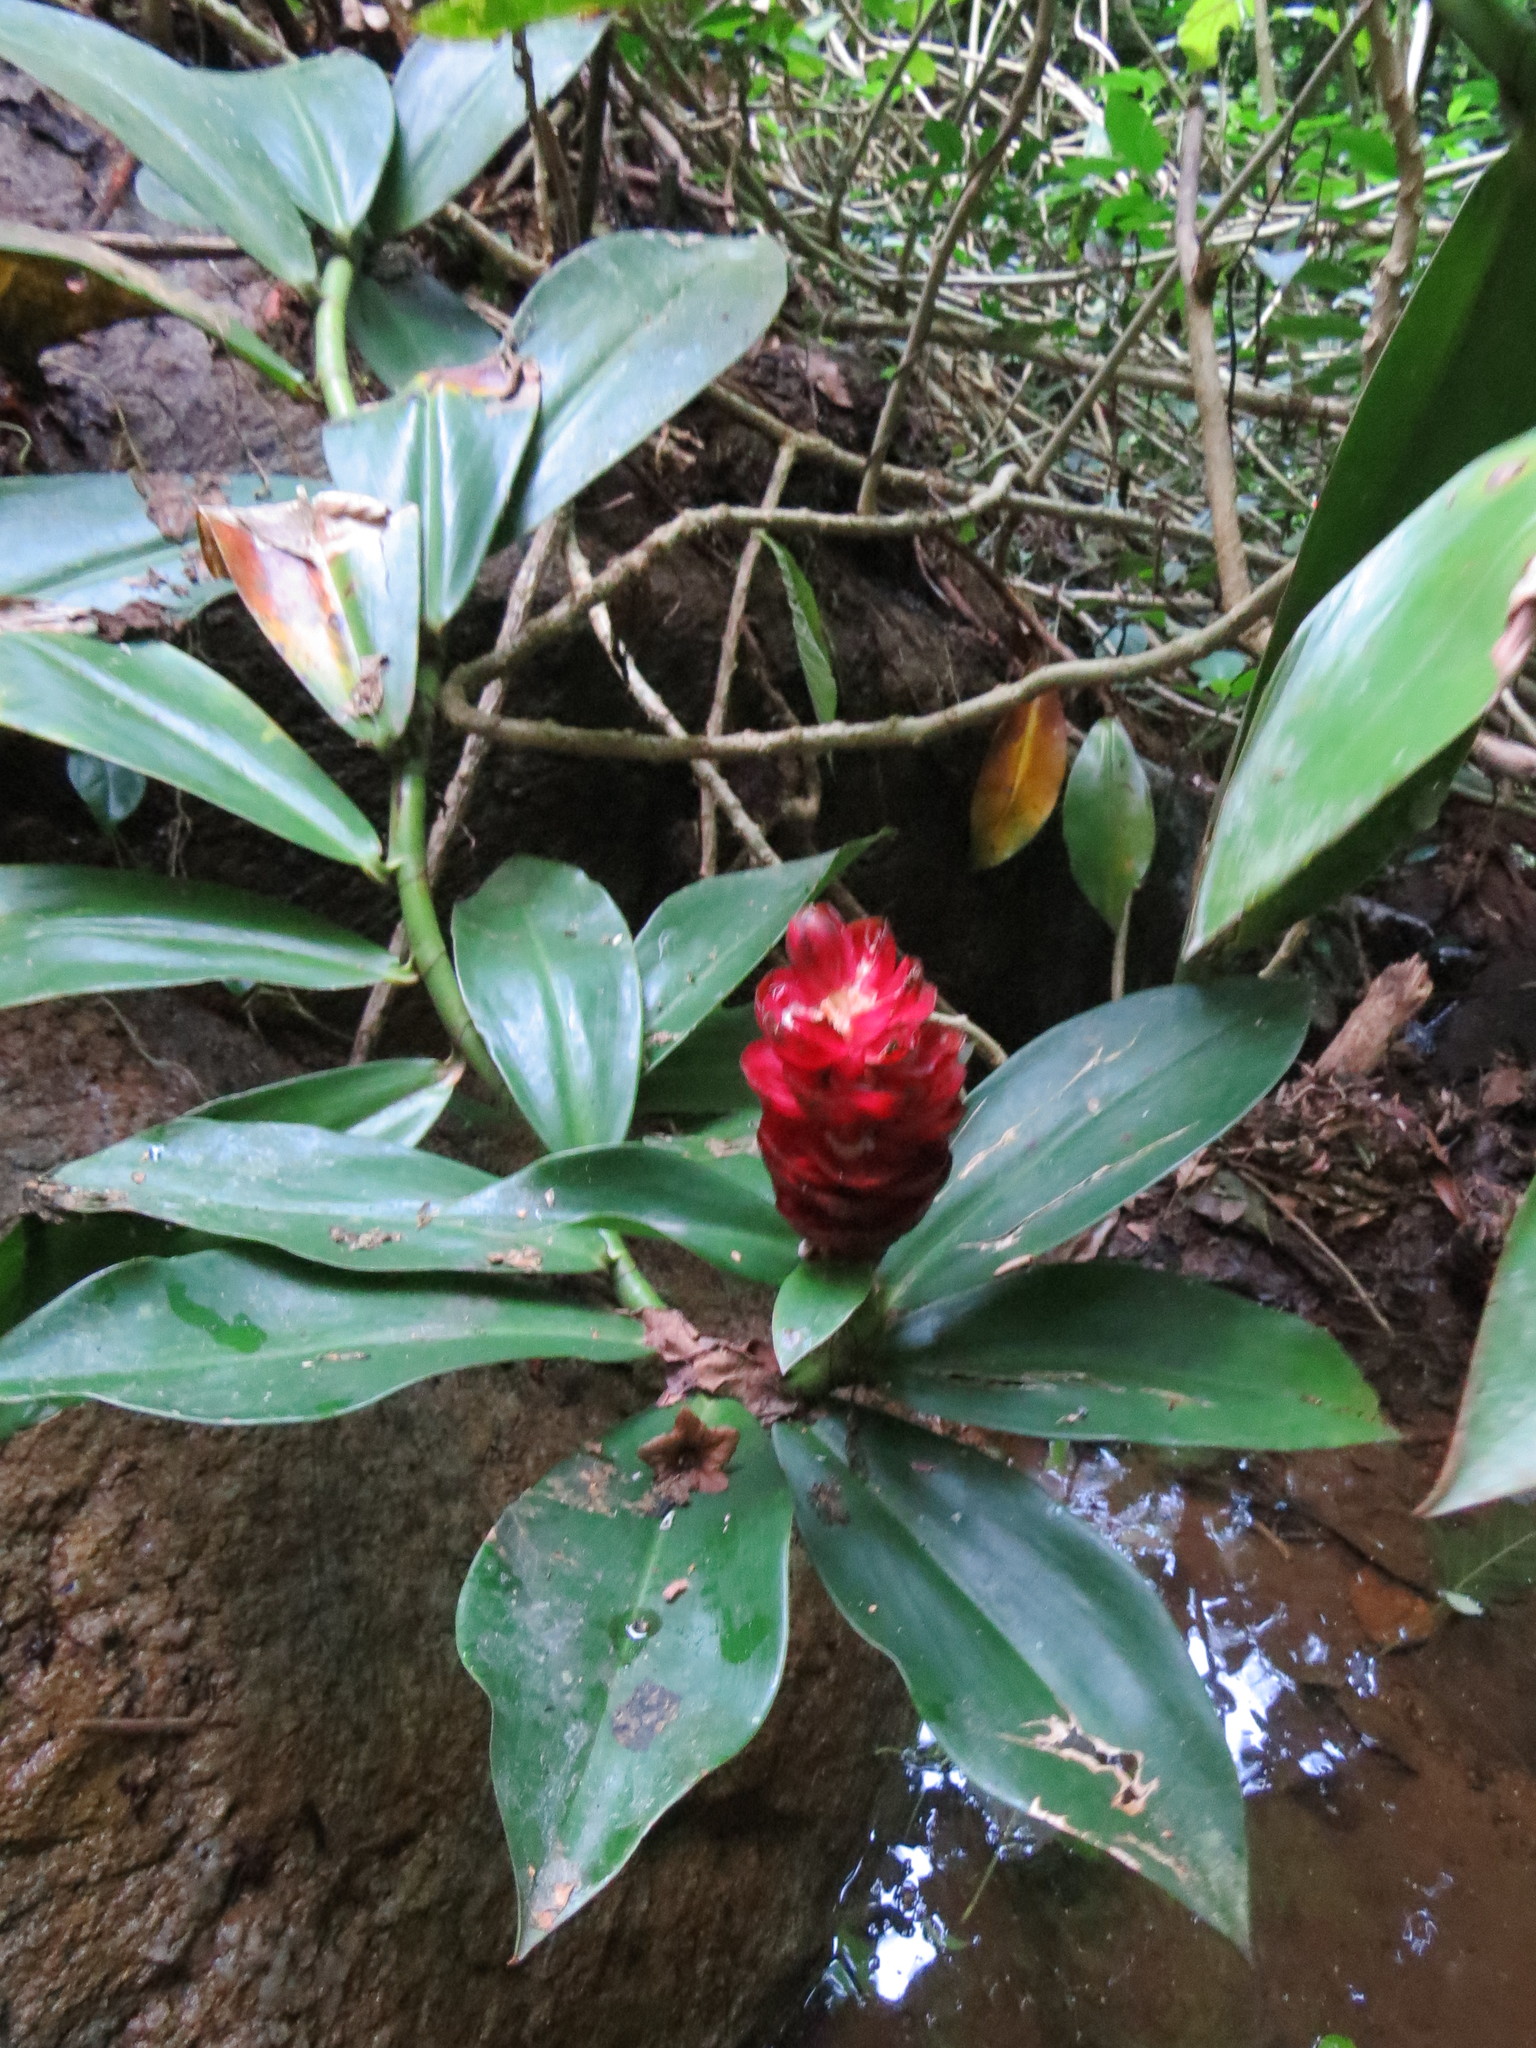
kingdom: Plantae
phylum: Tracheophyta
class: Liliopsida
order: Zingiberales
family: Costaceae
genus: Costus
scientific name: Costus spiralis
